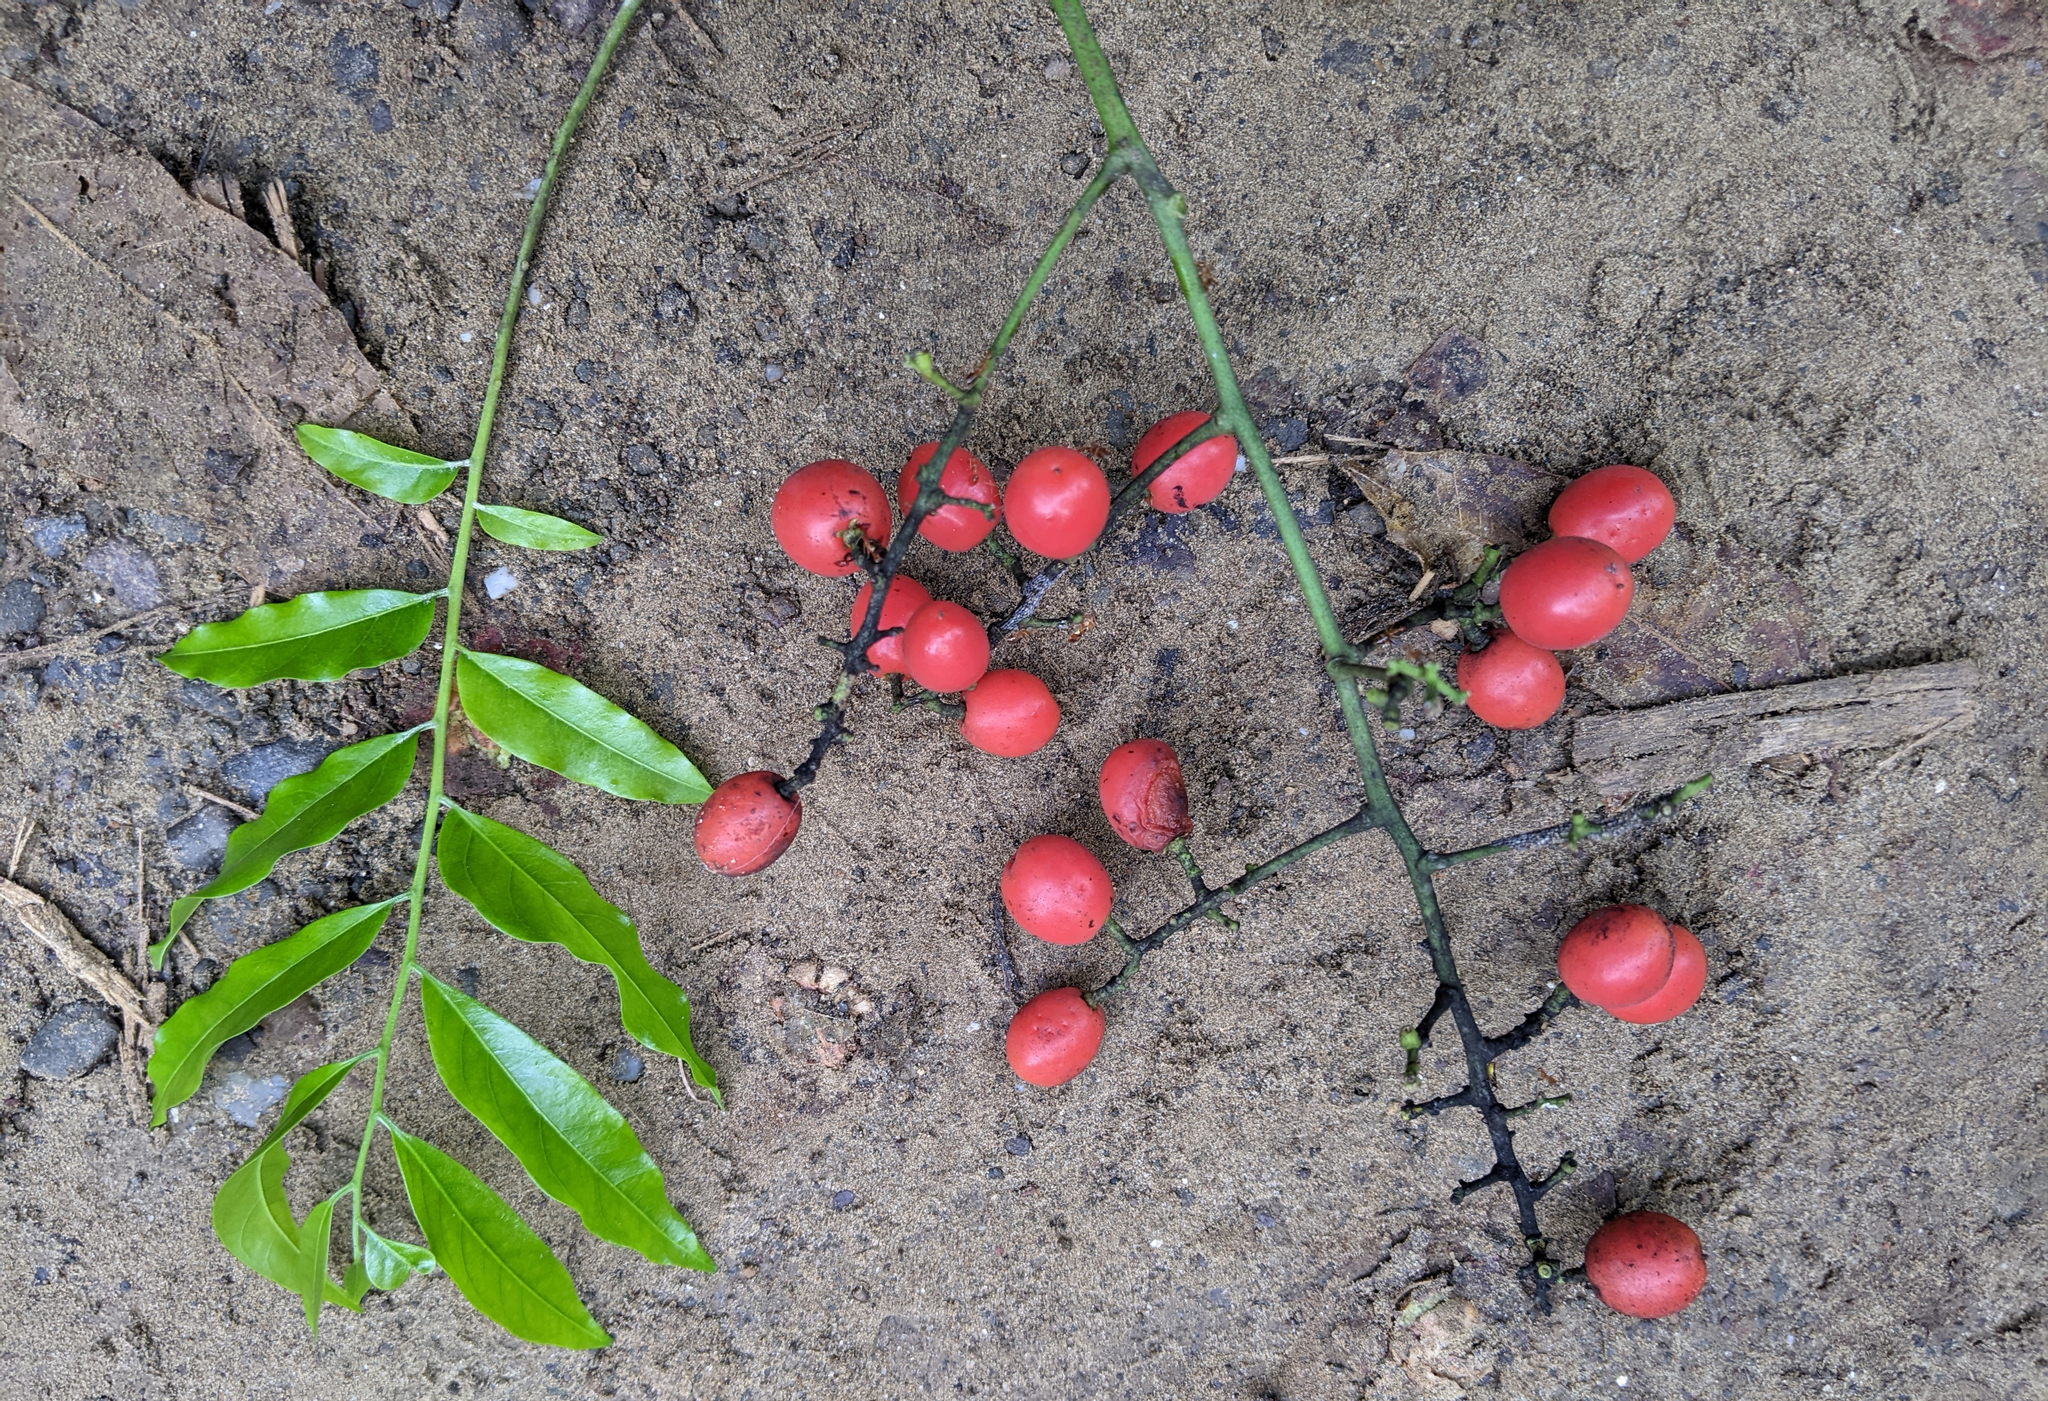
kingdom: Plantae
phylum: Tracheophyta
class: Magnoliopsida
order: Sapindales
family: Sapindaceae
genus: Ganophyllum
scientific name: Ganophyllum falcatum
